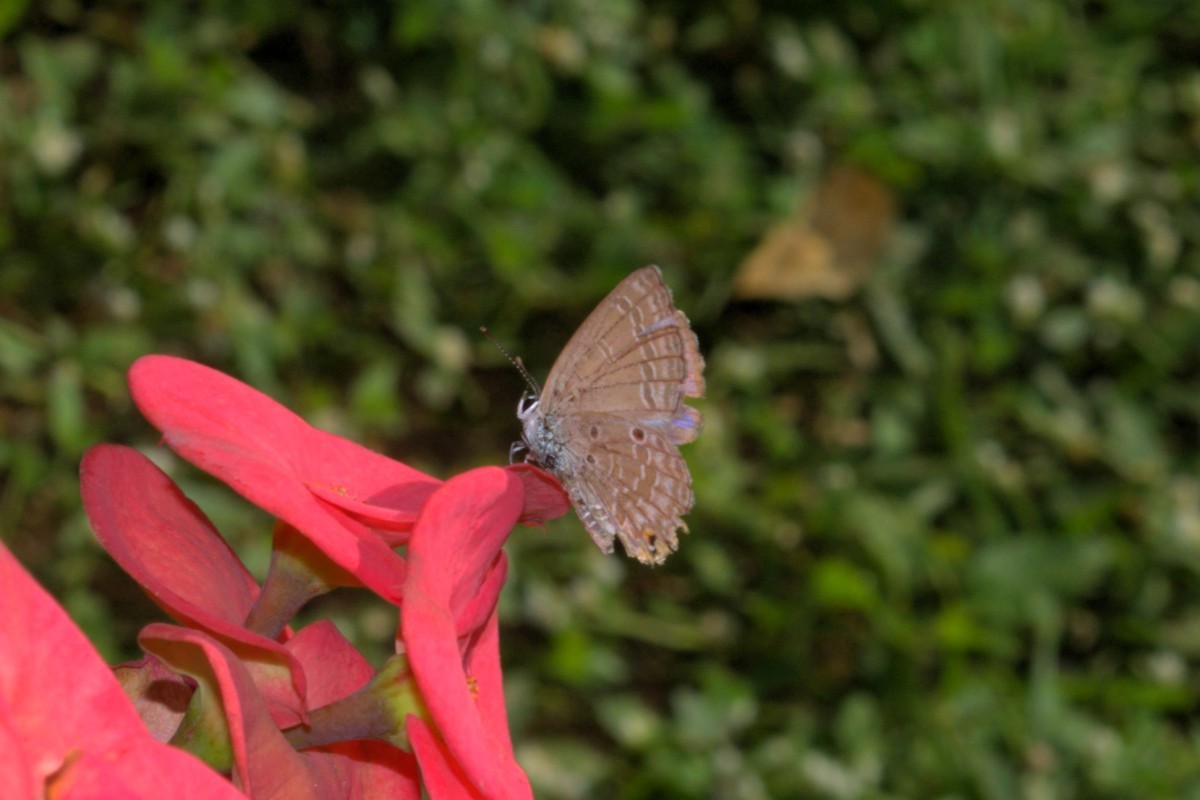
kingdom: Animalia
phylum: Arthropoda
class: Insecta
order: Lepidoptera
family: Lycaenidae
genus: Luthrodes
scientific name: Luthrodes pandava
